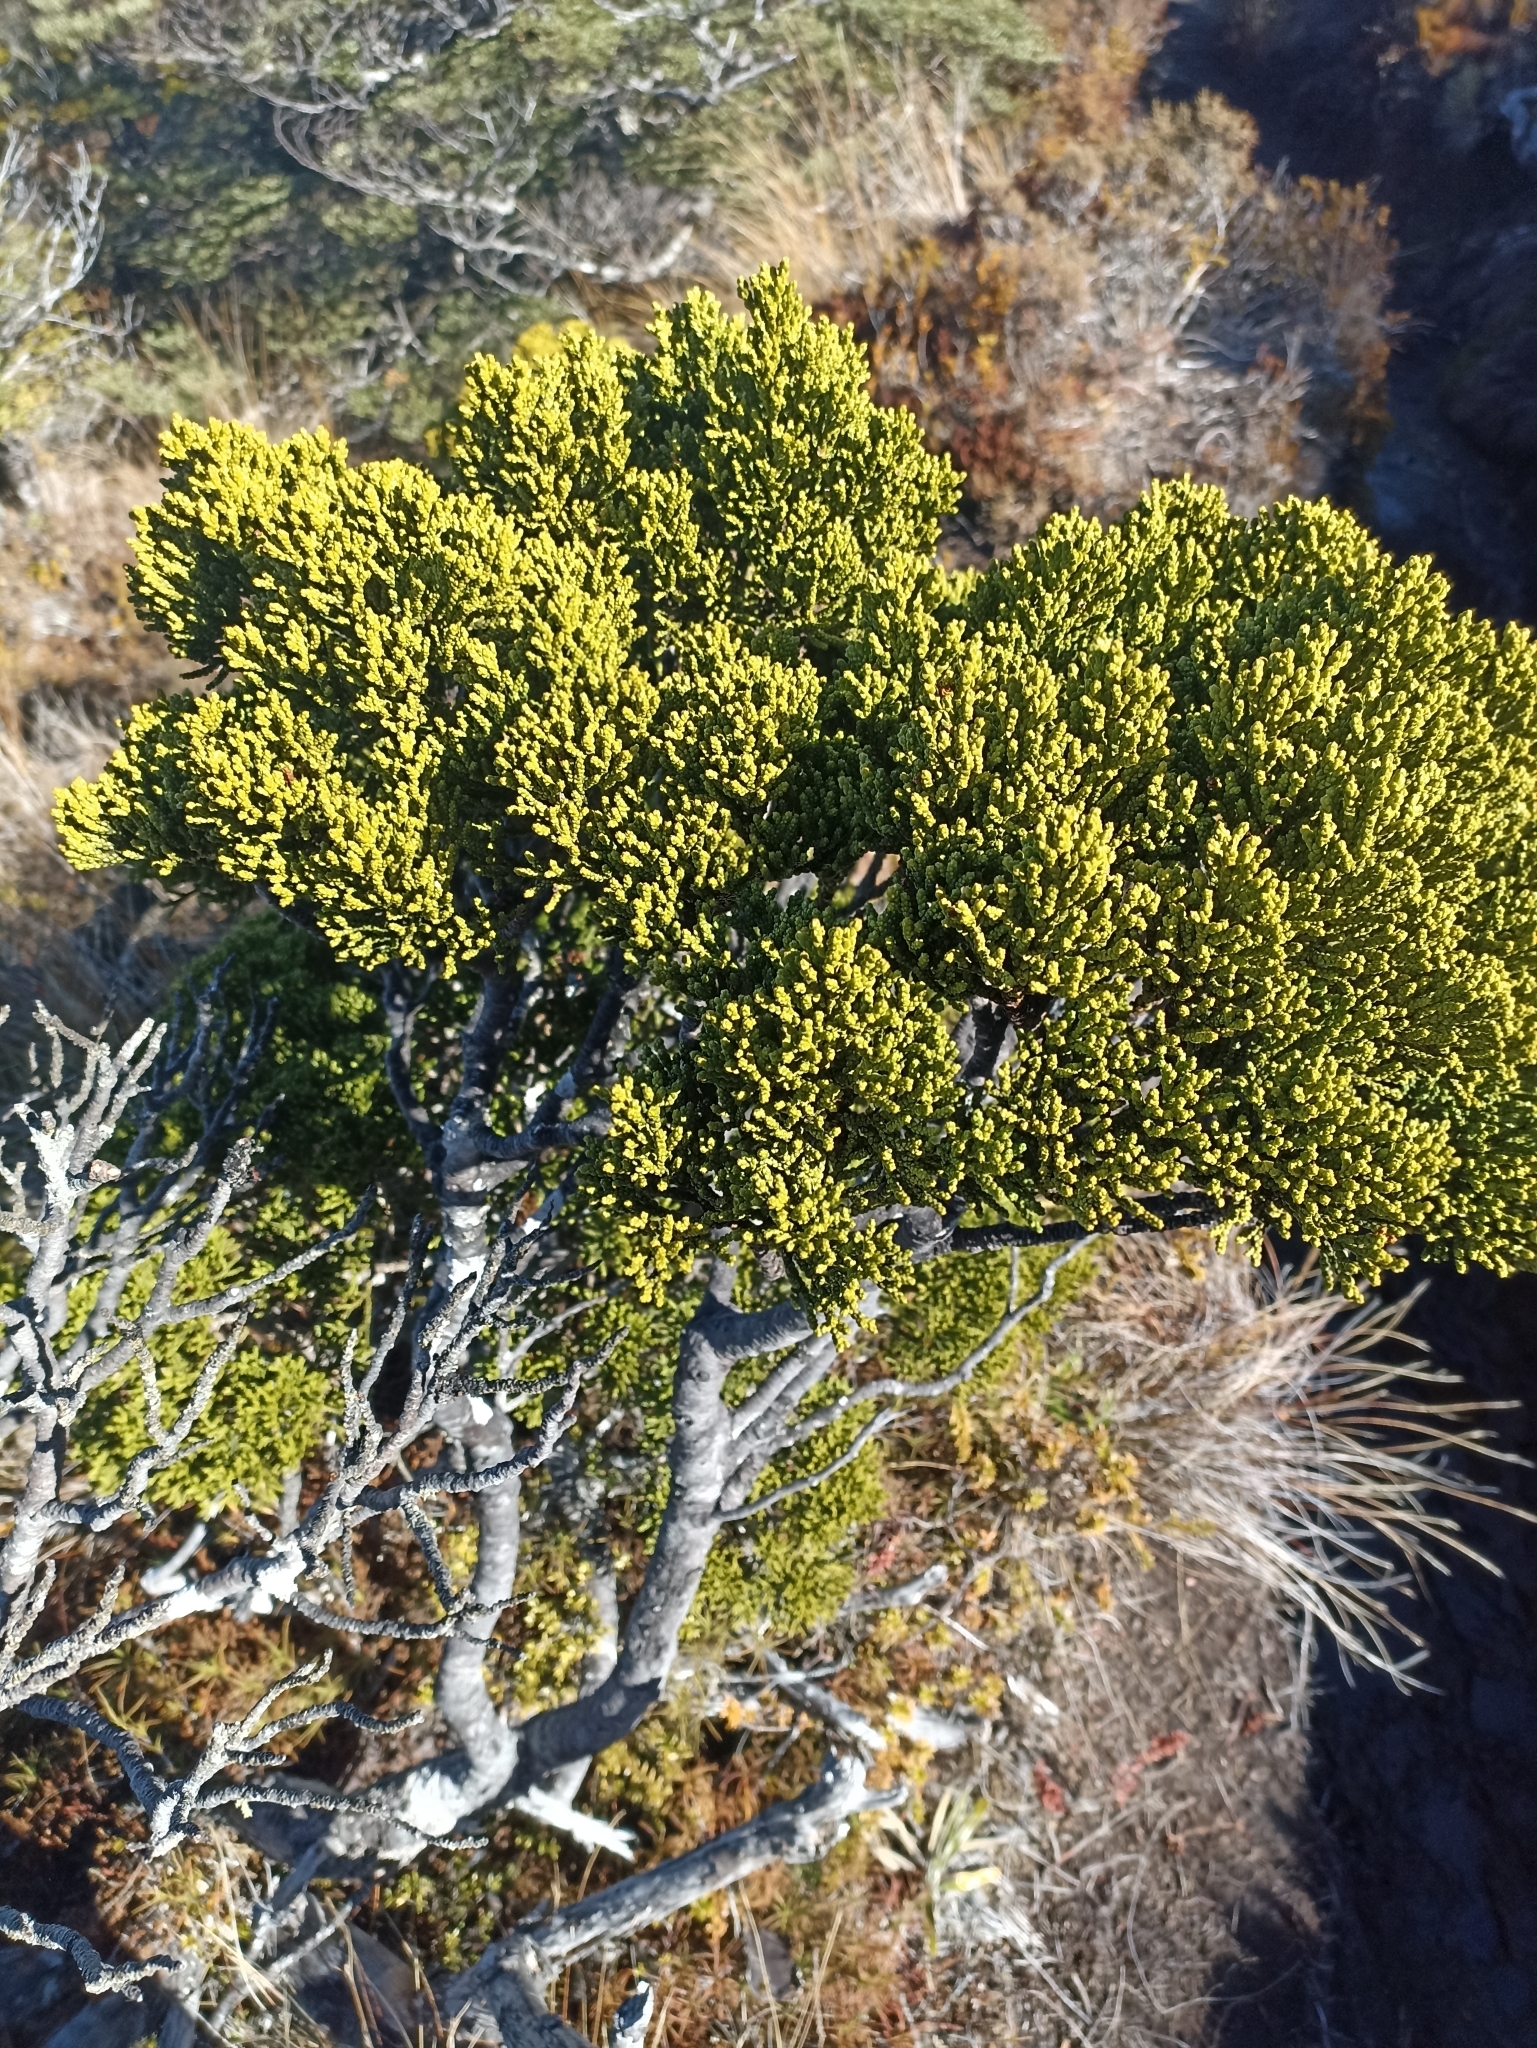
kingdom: Plantae
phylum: Tracheophyta
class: Pinopsida
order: Pinales
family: Podocarpaceae
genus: Halocarpus
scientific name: Halocarpus biformis
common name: Alpine tarwood
